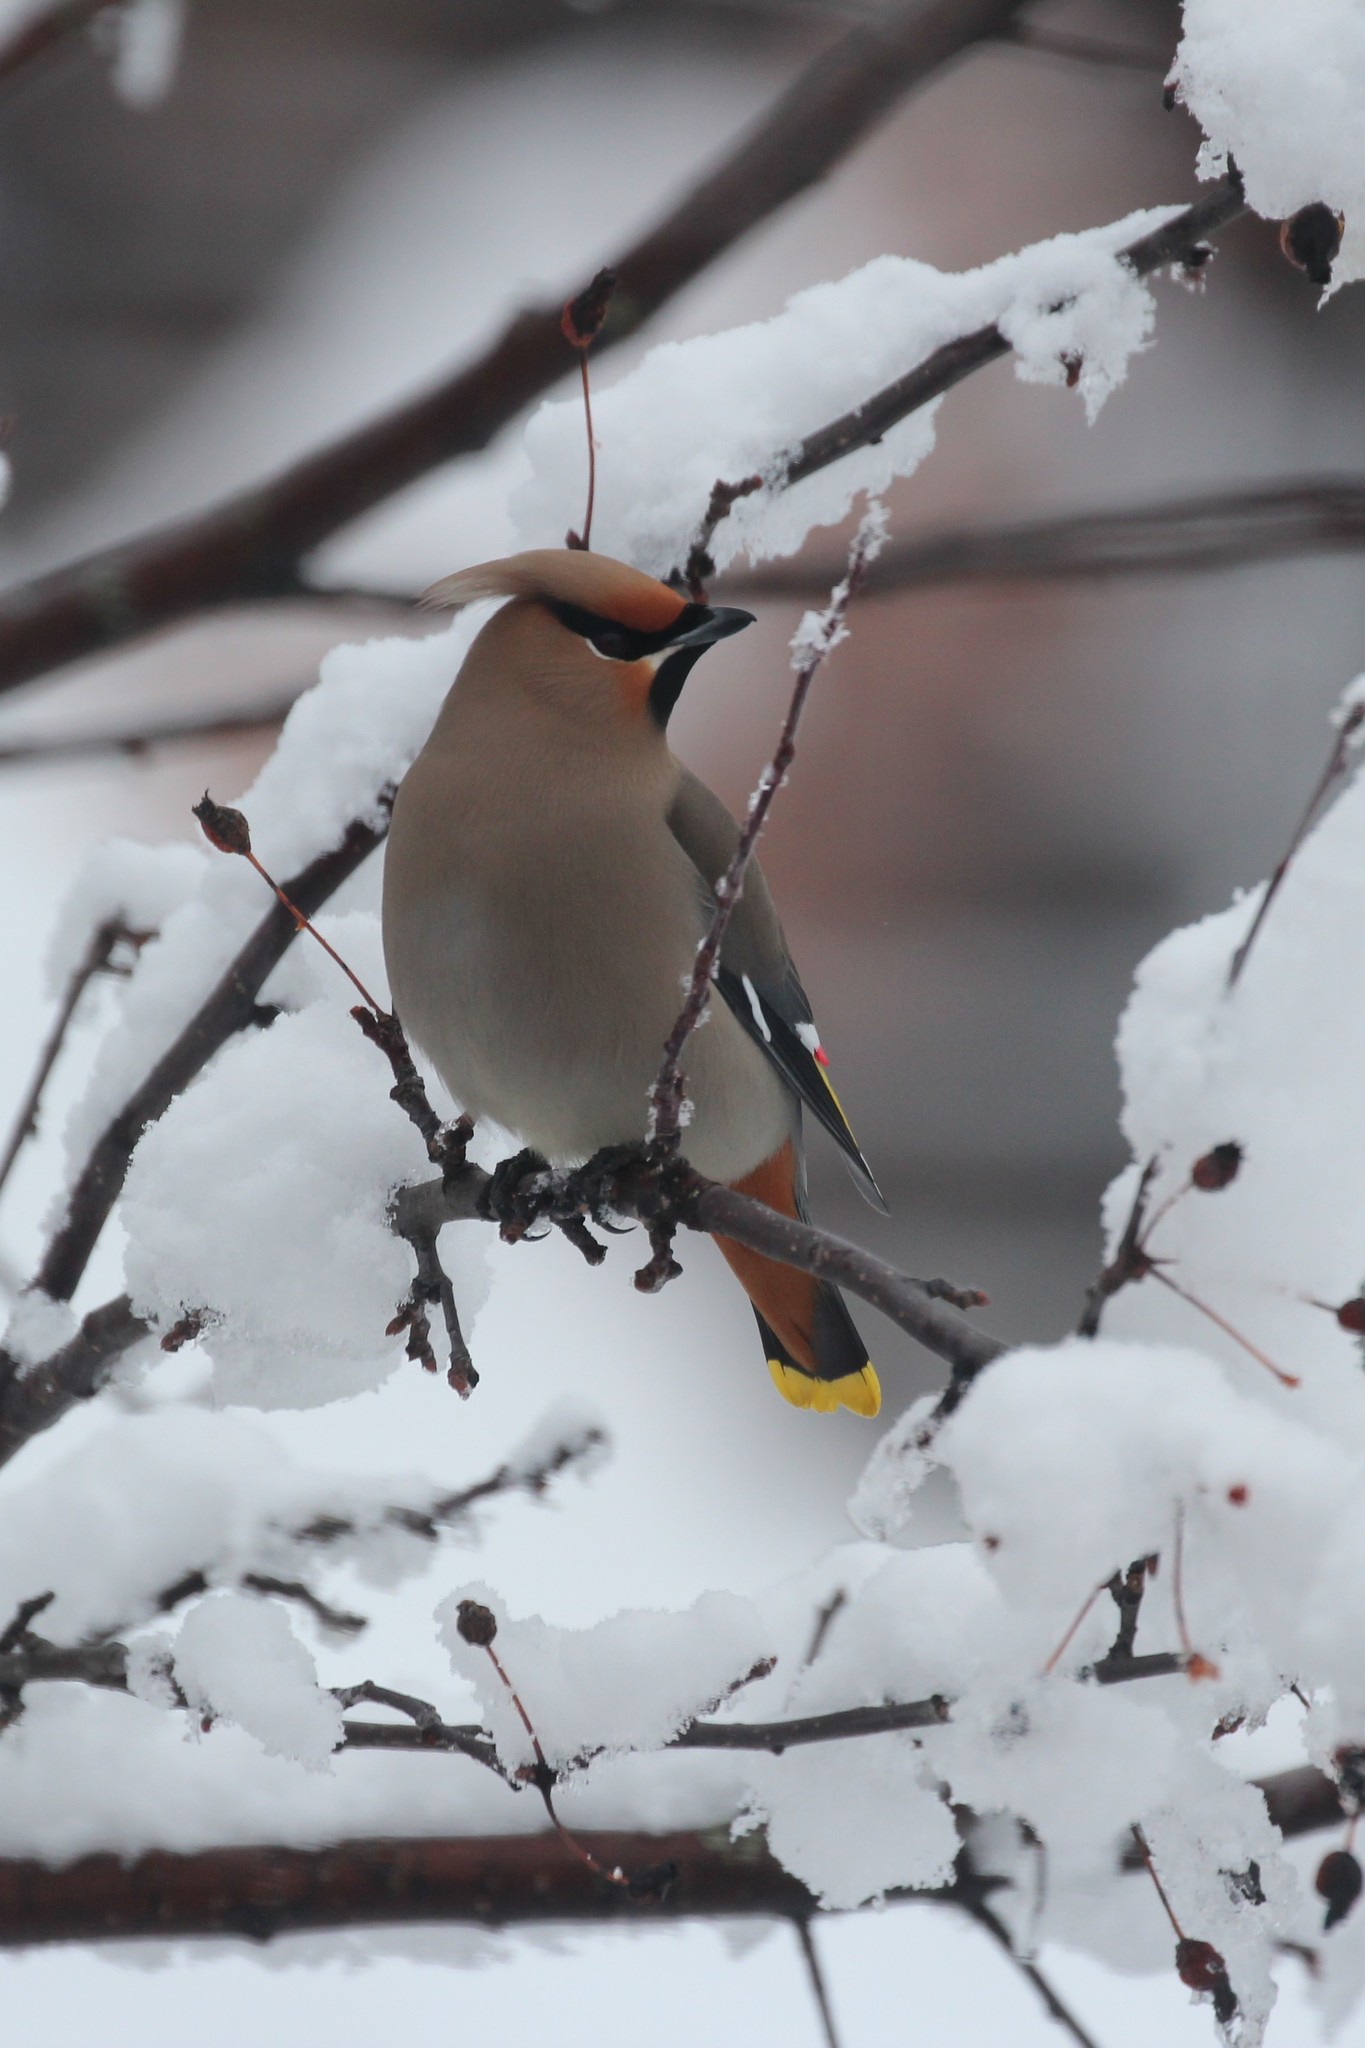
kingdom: Animalia
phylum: Chordata
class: Aves
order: Passeriformes
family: Bombycillidae
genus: Bombycilla
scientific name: Bombycilla garrulus
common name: Bohemian waxwing
